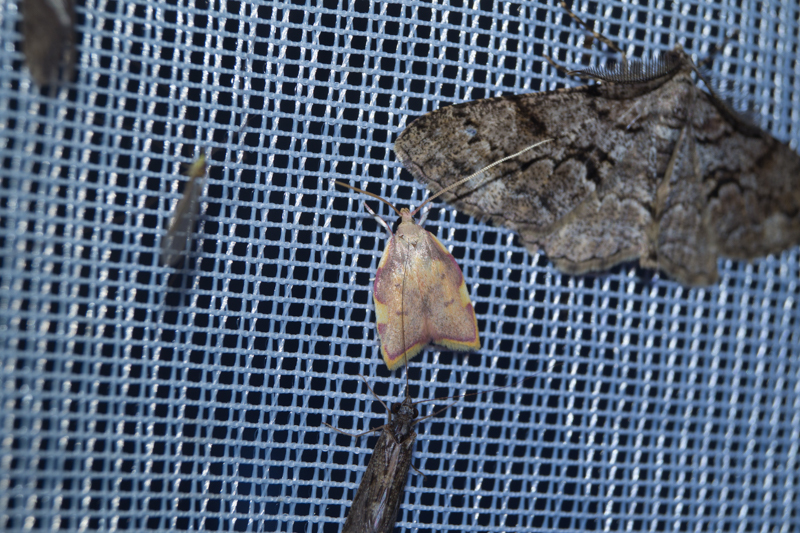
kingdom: Animalia
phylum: Arthropoda
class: Insecta
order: Lepidoptera
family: Peleopodidae
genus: Carcina
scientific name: Carcina quercana
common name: Moth
